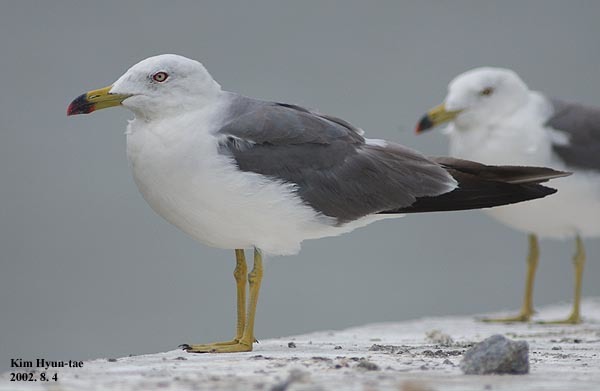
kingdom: Animalia
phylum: Chordata
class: Aves
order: Charadriiformes
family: Laridae
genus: Larus
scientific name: Larus crassirostris
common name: Black-tailed gull
